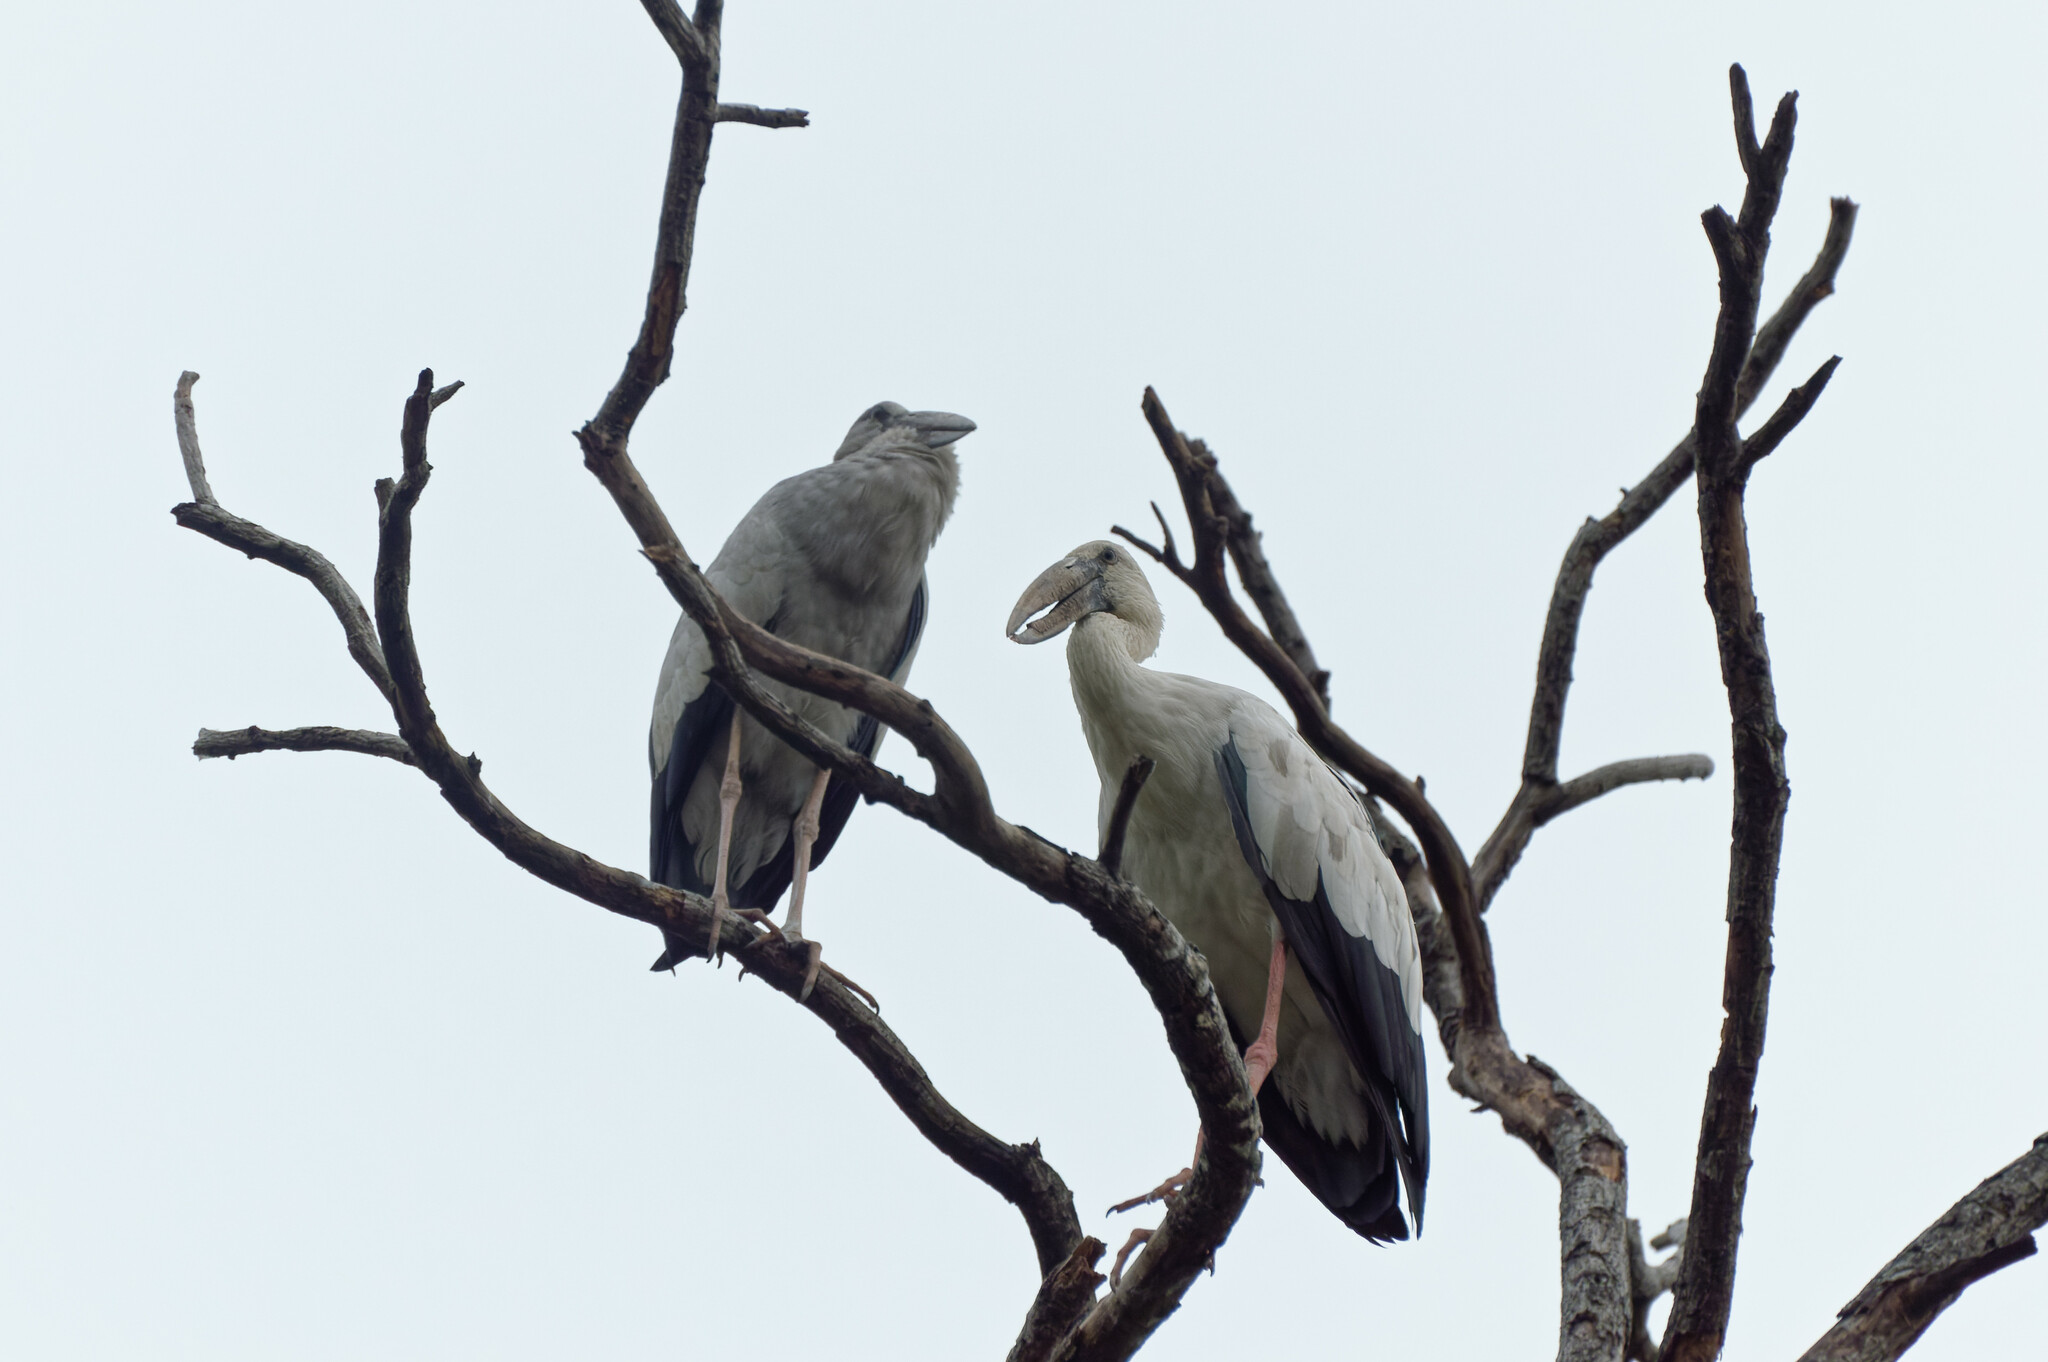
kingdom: Animalia
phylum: Chordata
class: Aves
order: Ciconiiformes
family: Ciconiidae
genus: Anastomus
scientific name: Anastomus oscitans
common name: Asian openbill
